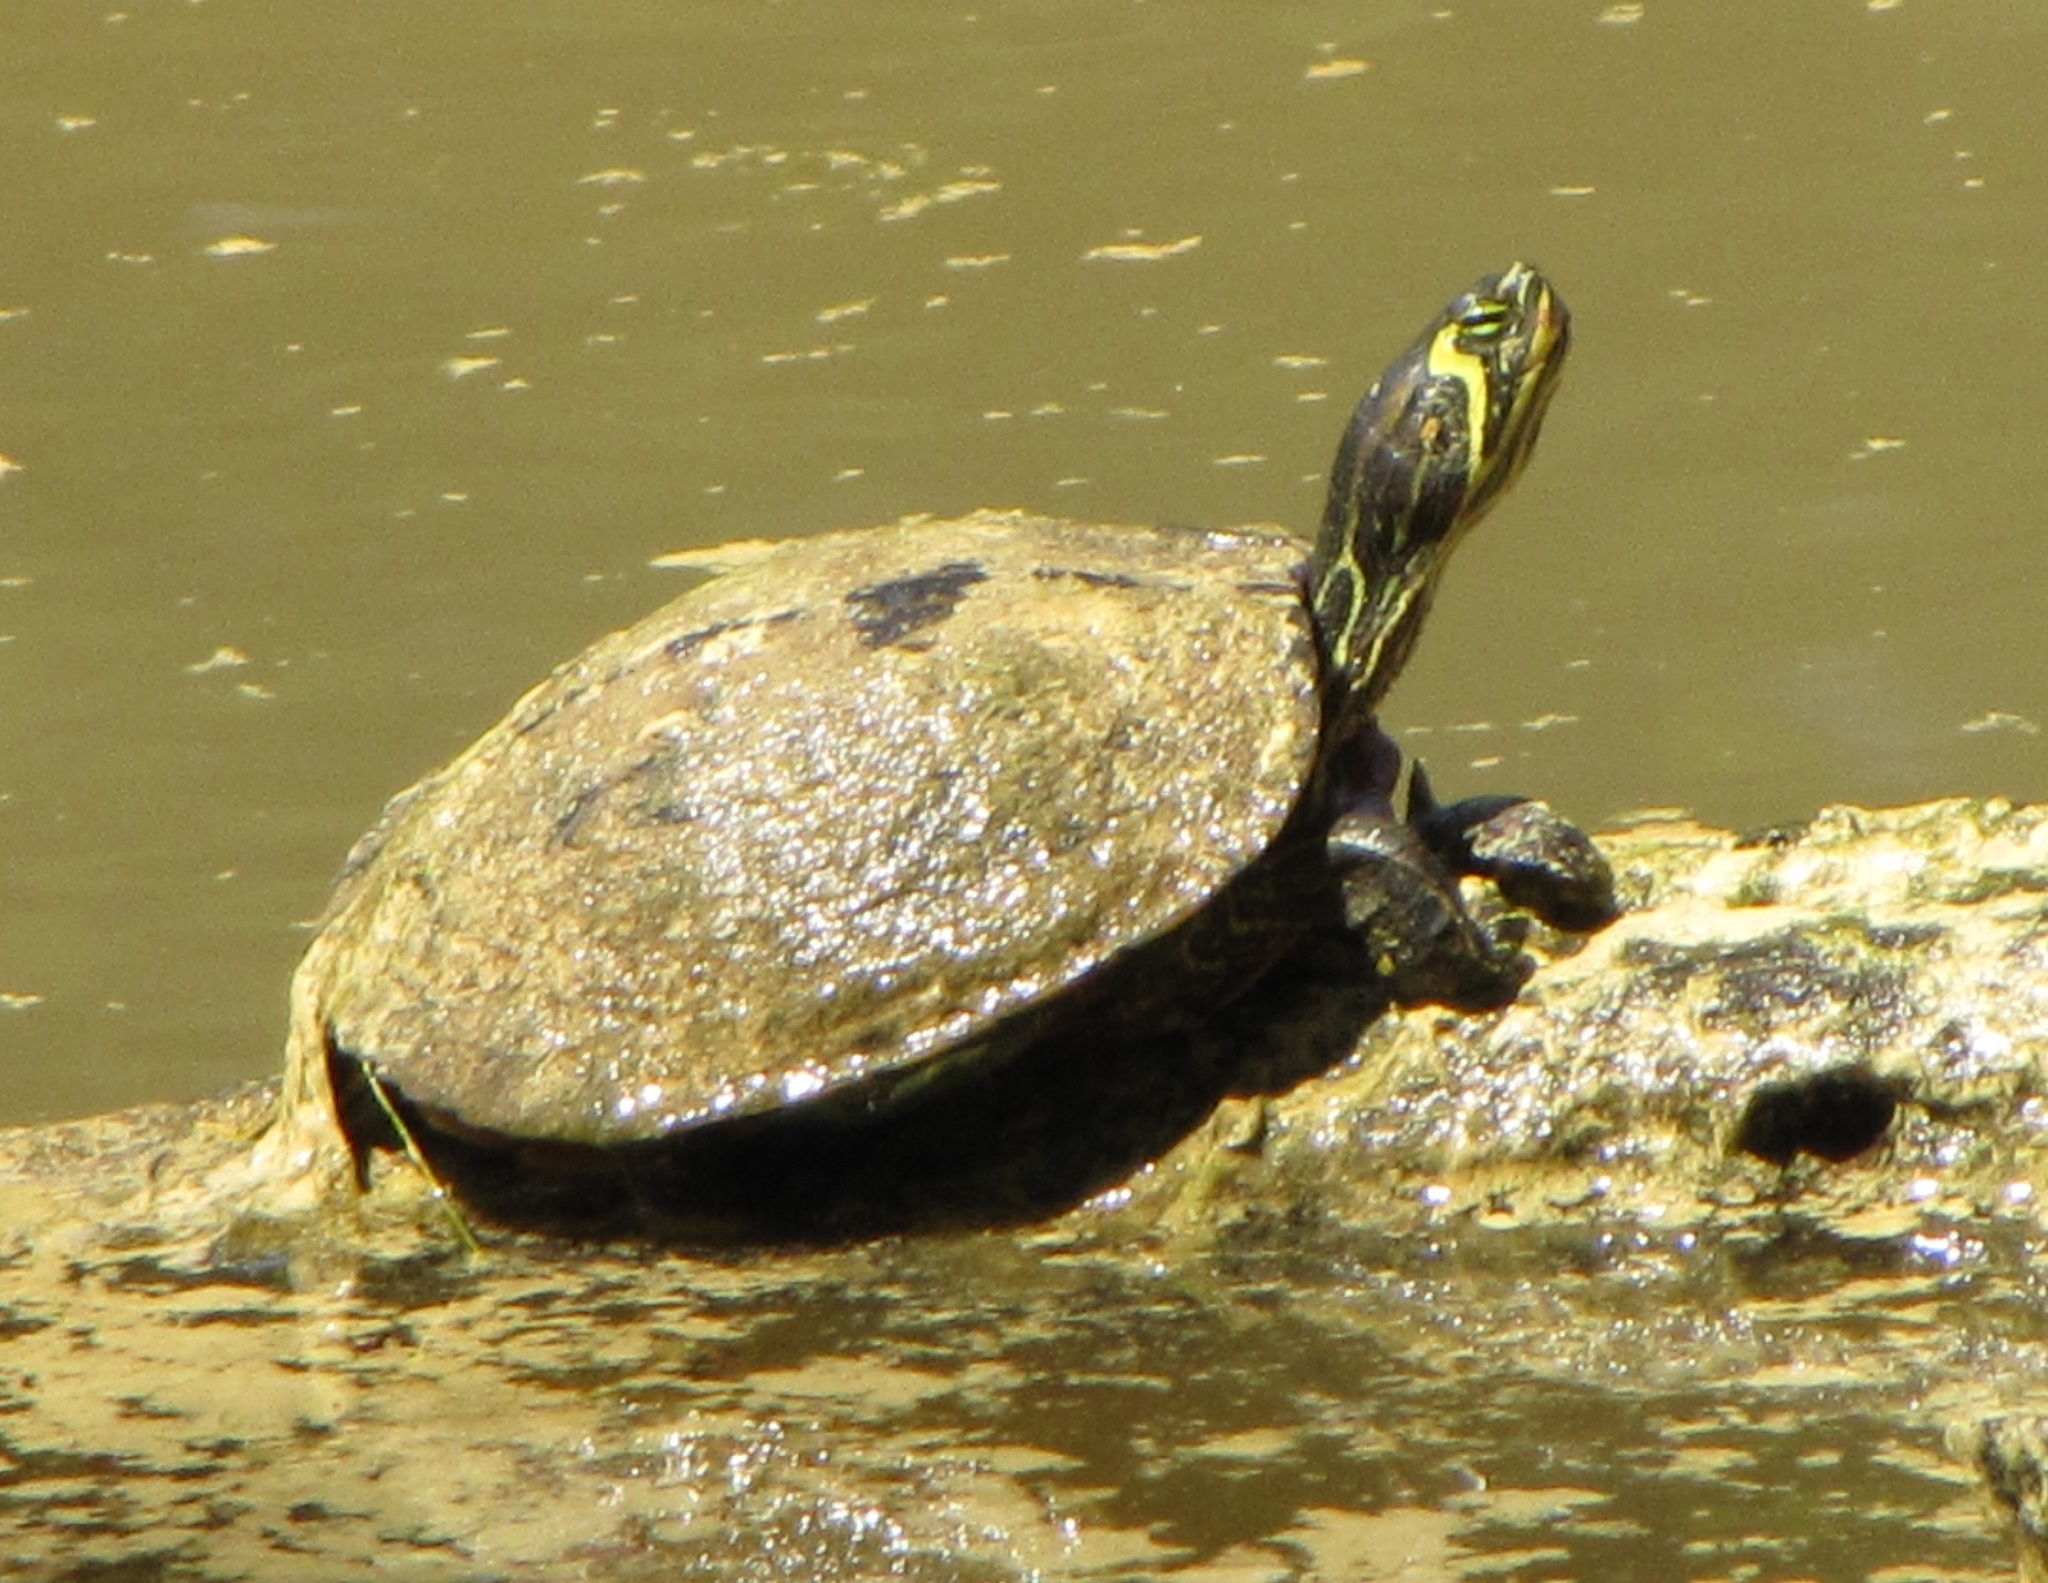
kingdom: Animalia
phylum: Chordata
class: Testudines
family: Emydidae
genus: Trachemys
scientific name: Trachemys scripta
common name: Slider
